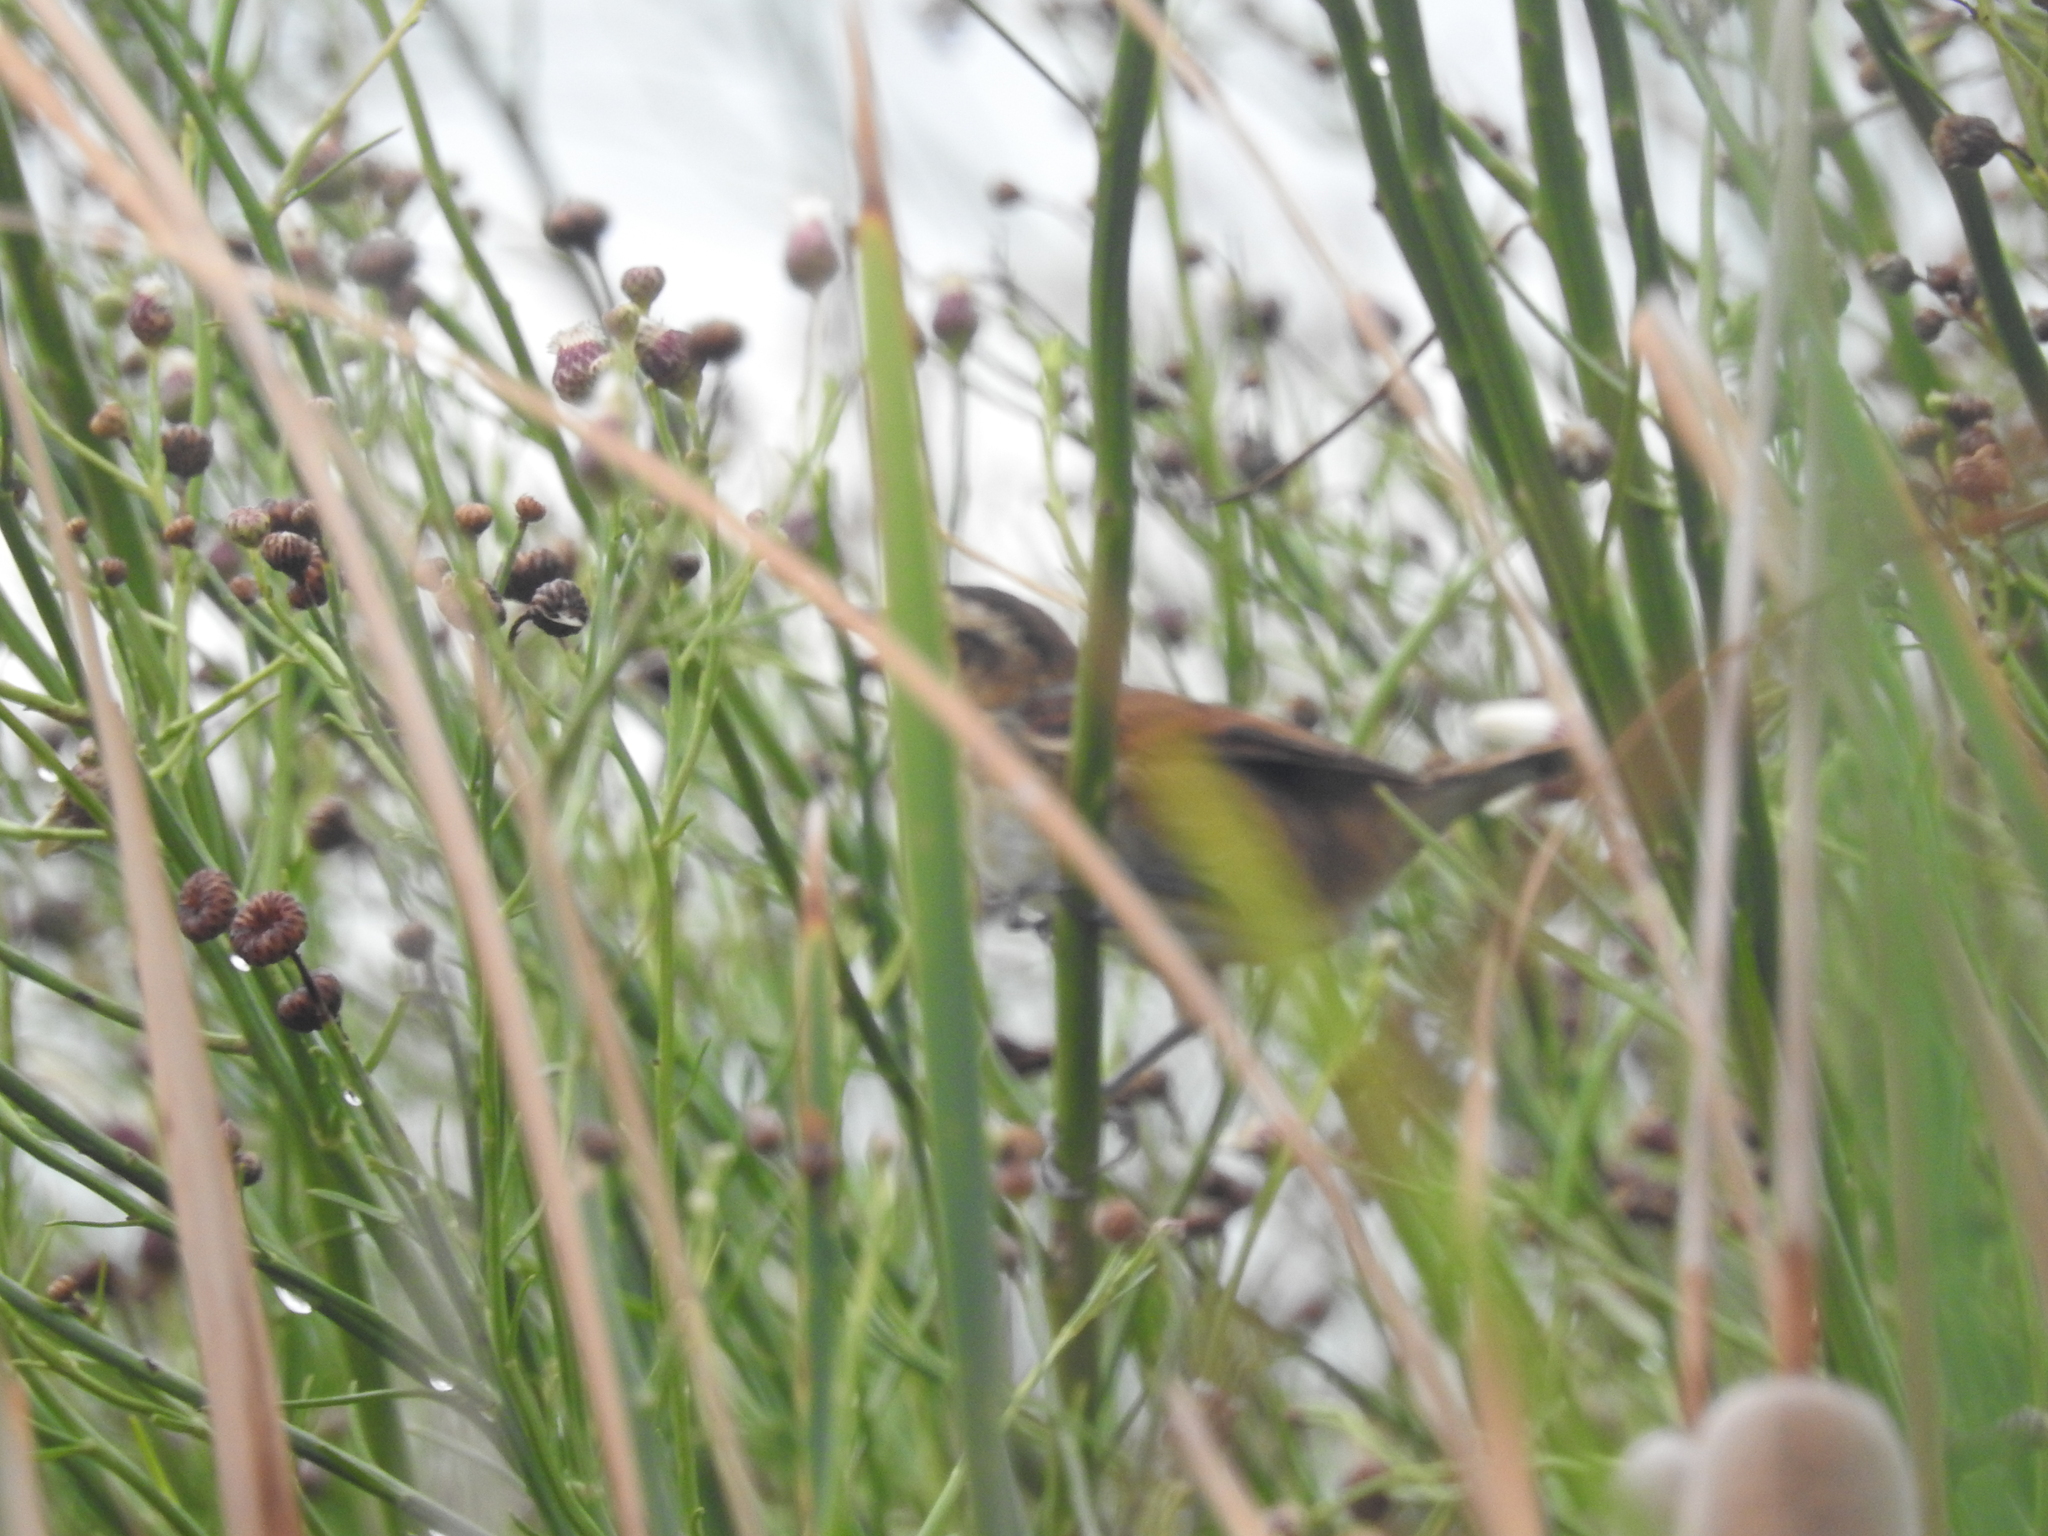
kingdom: Animalia
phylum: Chordata
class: Aves
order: Passeriformes
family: Furnariidae
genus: Phleocryptes
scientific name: Phleocryptes melanops
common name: Wren-like rushbird
